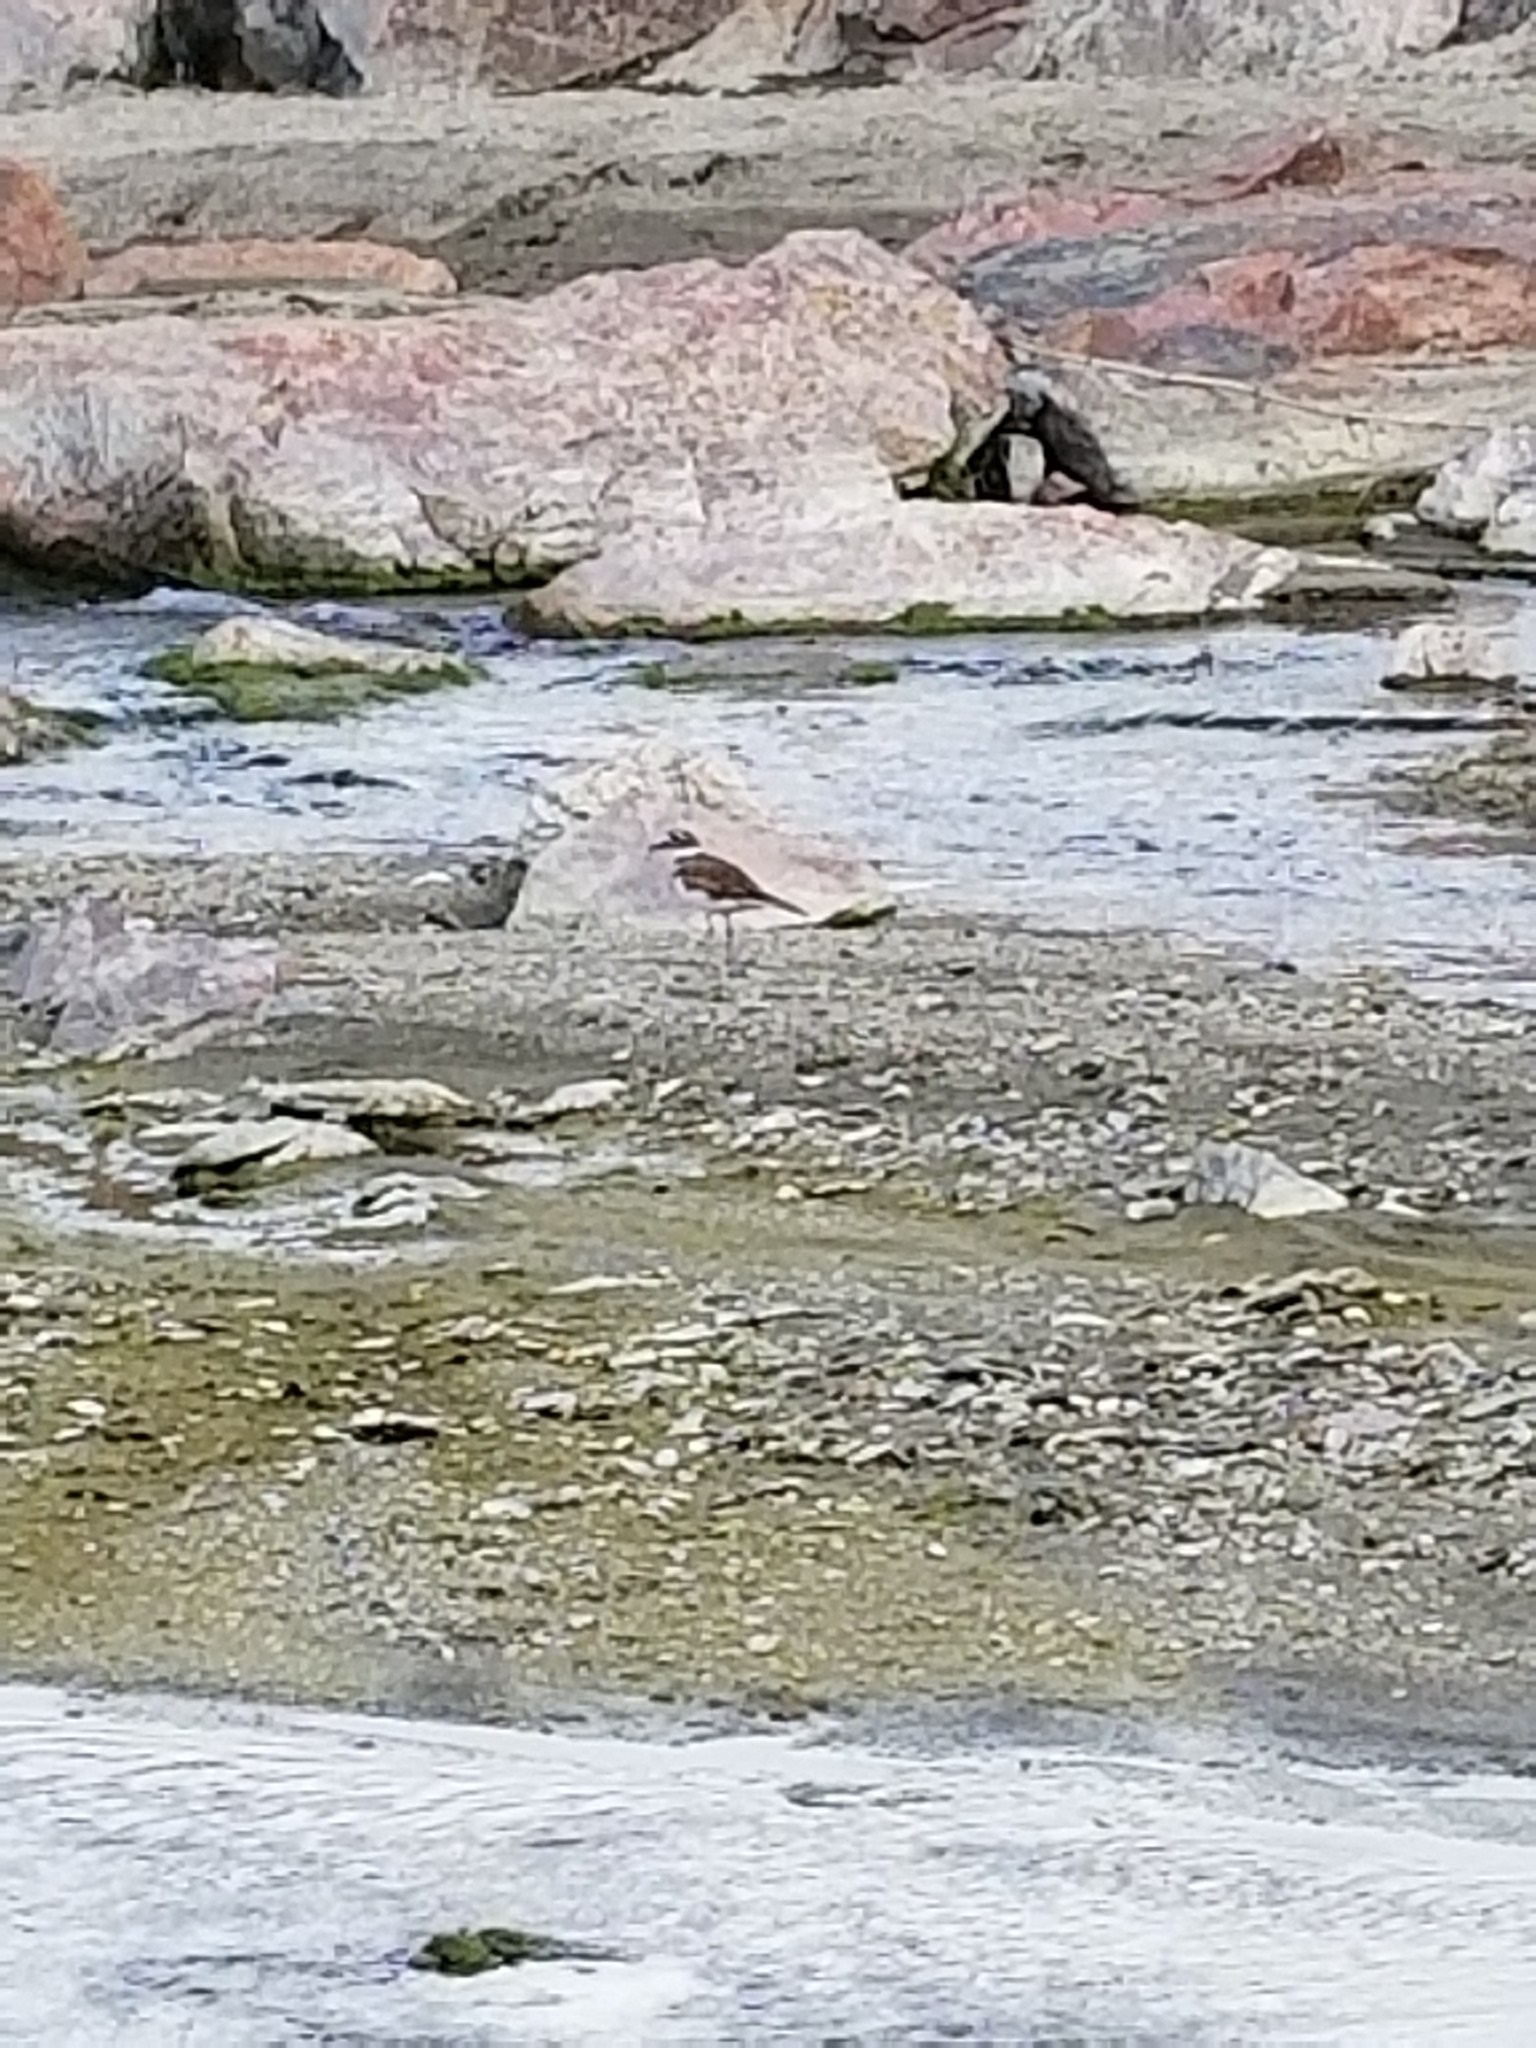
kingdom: Animalia
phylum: Chordata
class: Aves
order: Charadriiformes
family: Charadriidae
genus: Charadrius
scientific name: Charadrius vociferus
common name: Killdeer
